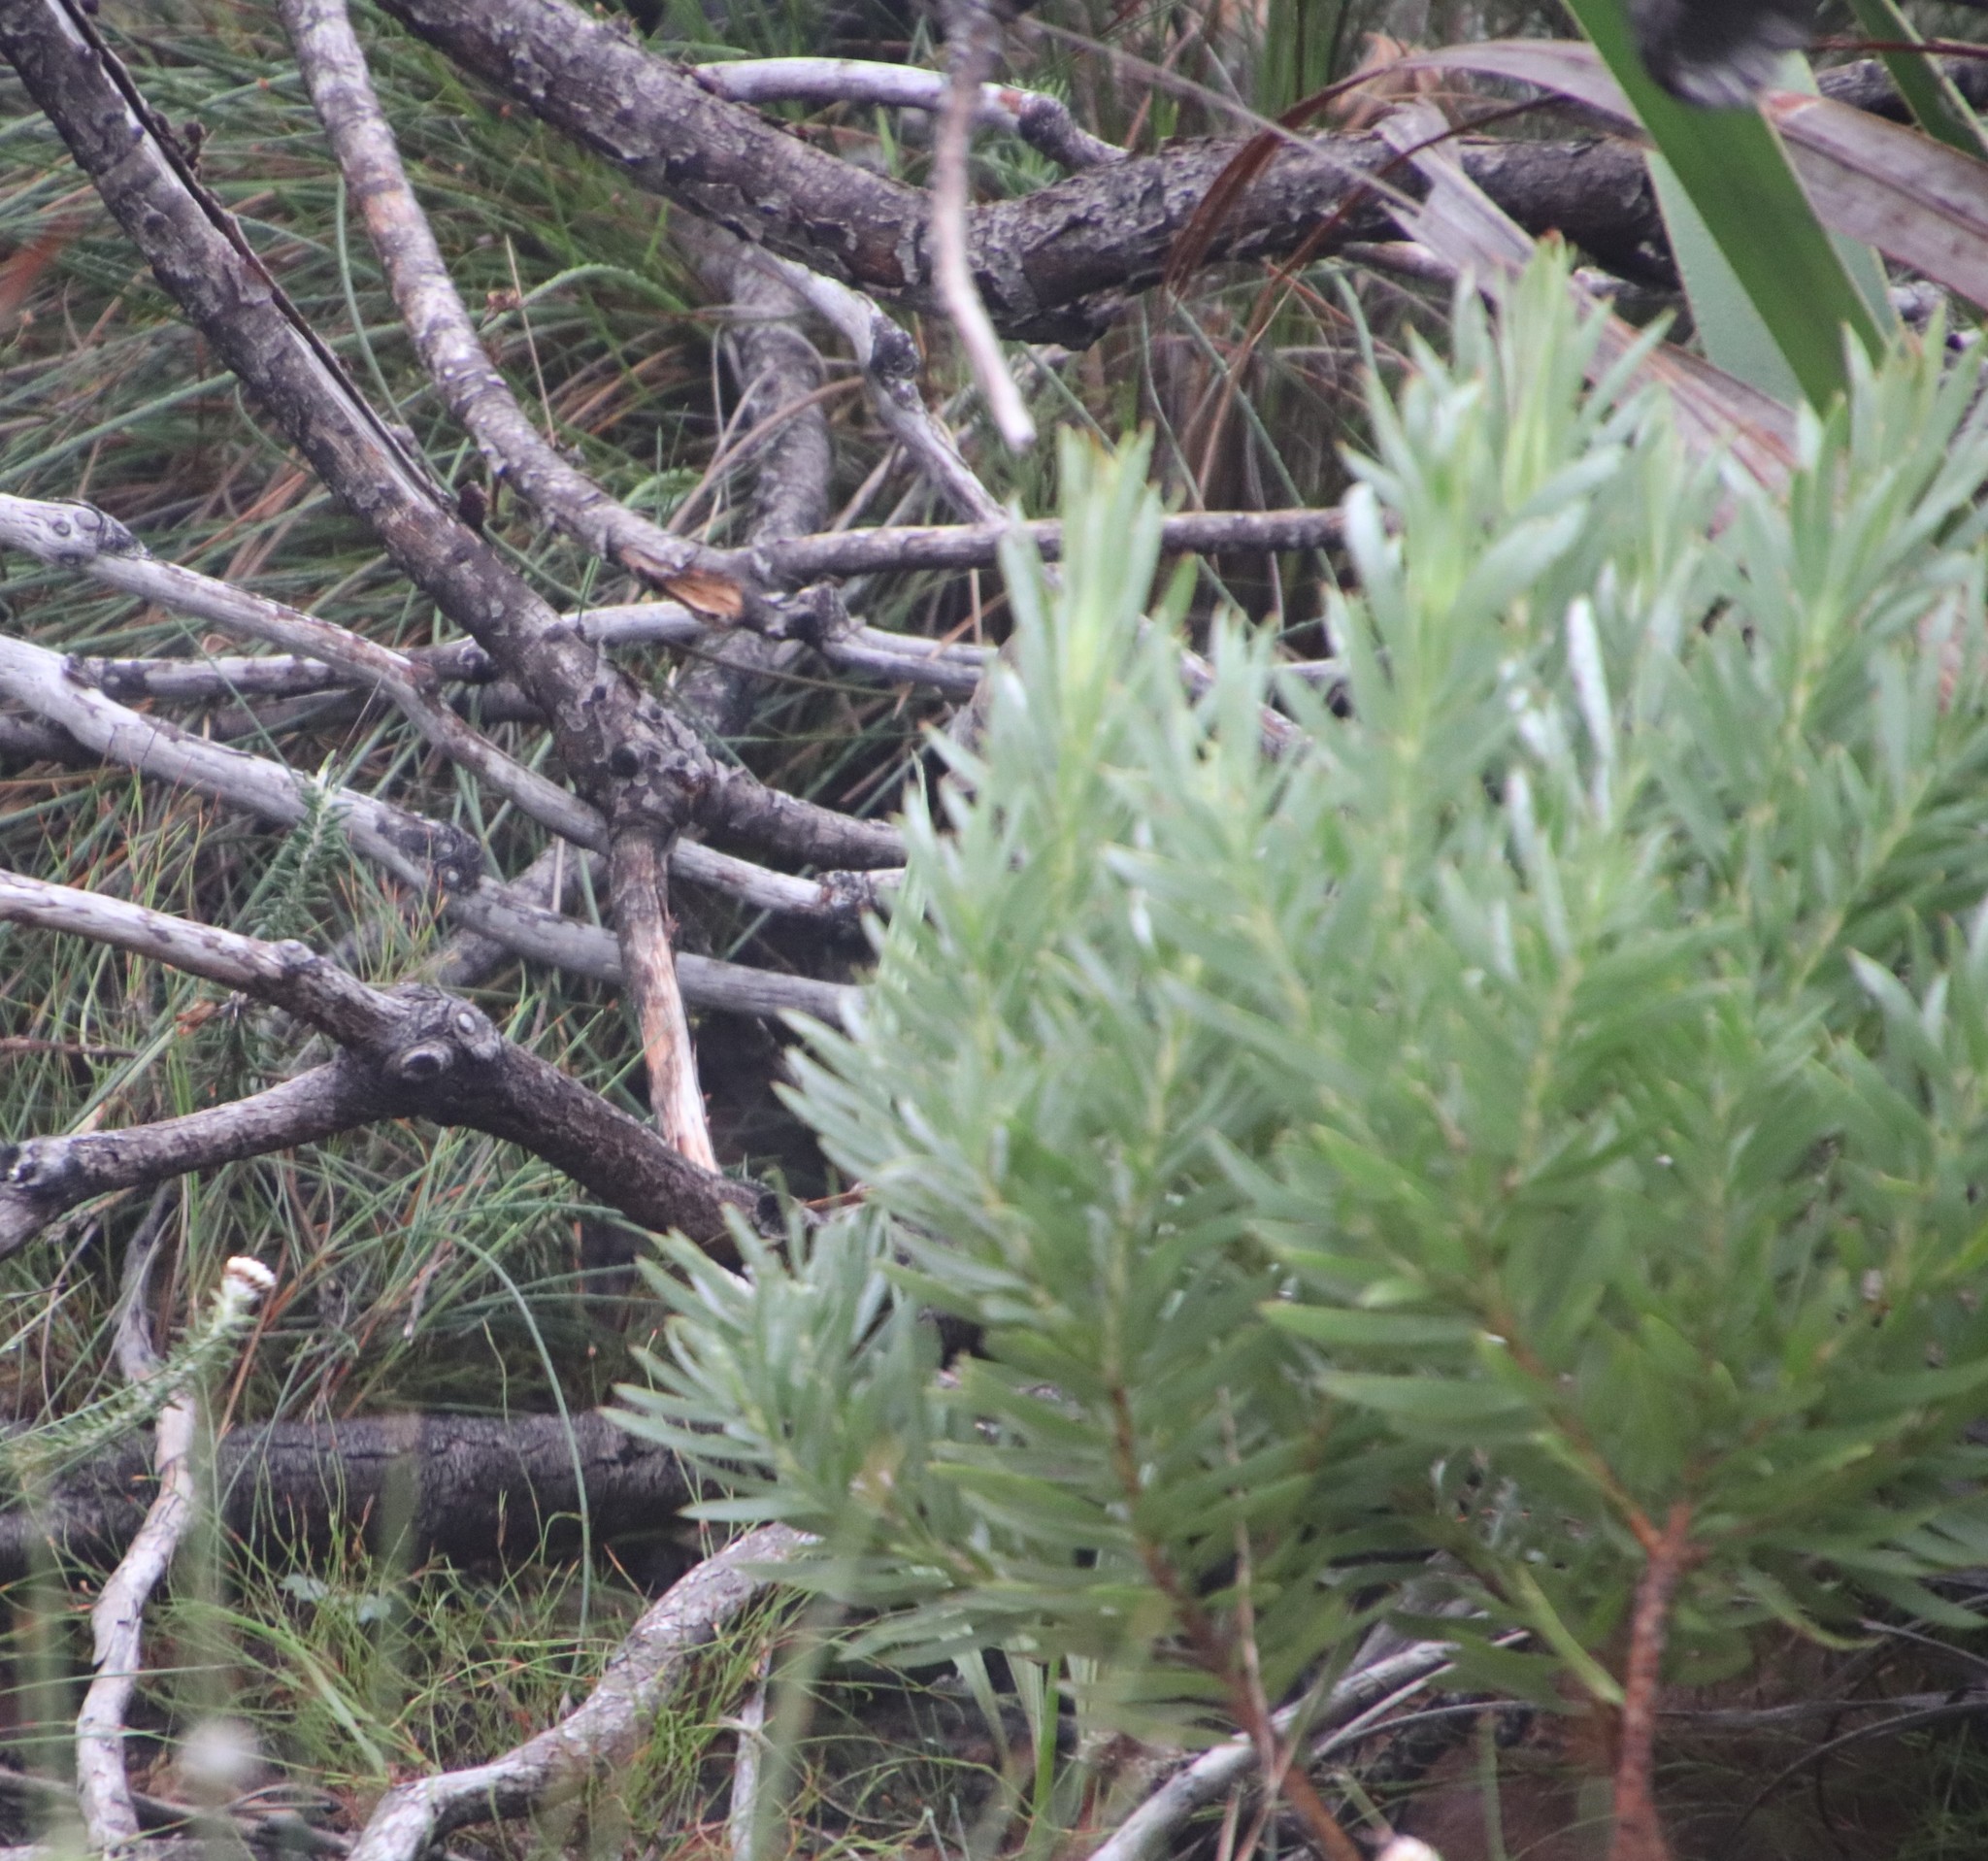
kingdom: Plantae
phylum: Tracheophyta
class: Magnoliopsida
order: Proteales
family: Proteaceae
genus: Leucadendron
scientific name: Leucadendron xanthoconus
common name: Sickle-leaf conebush
